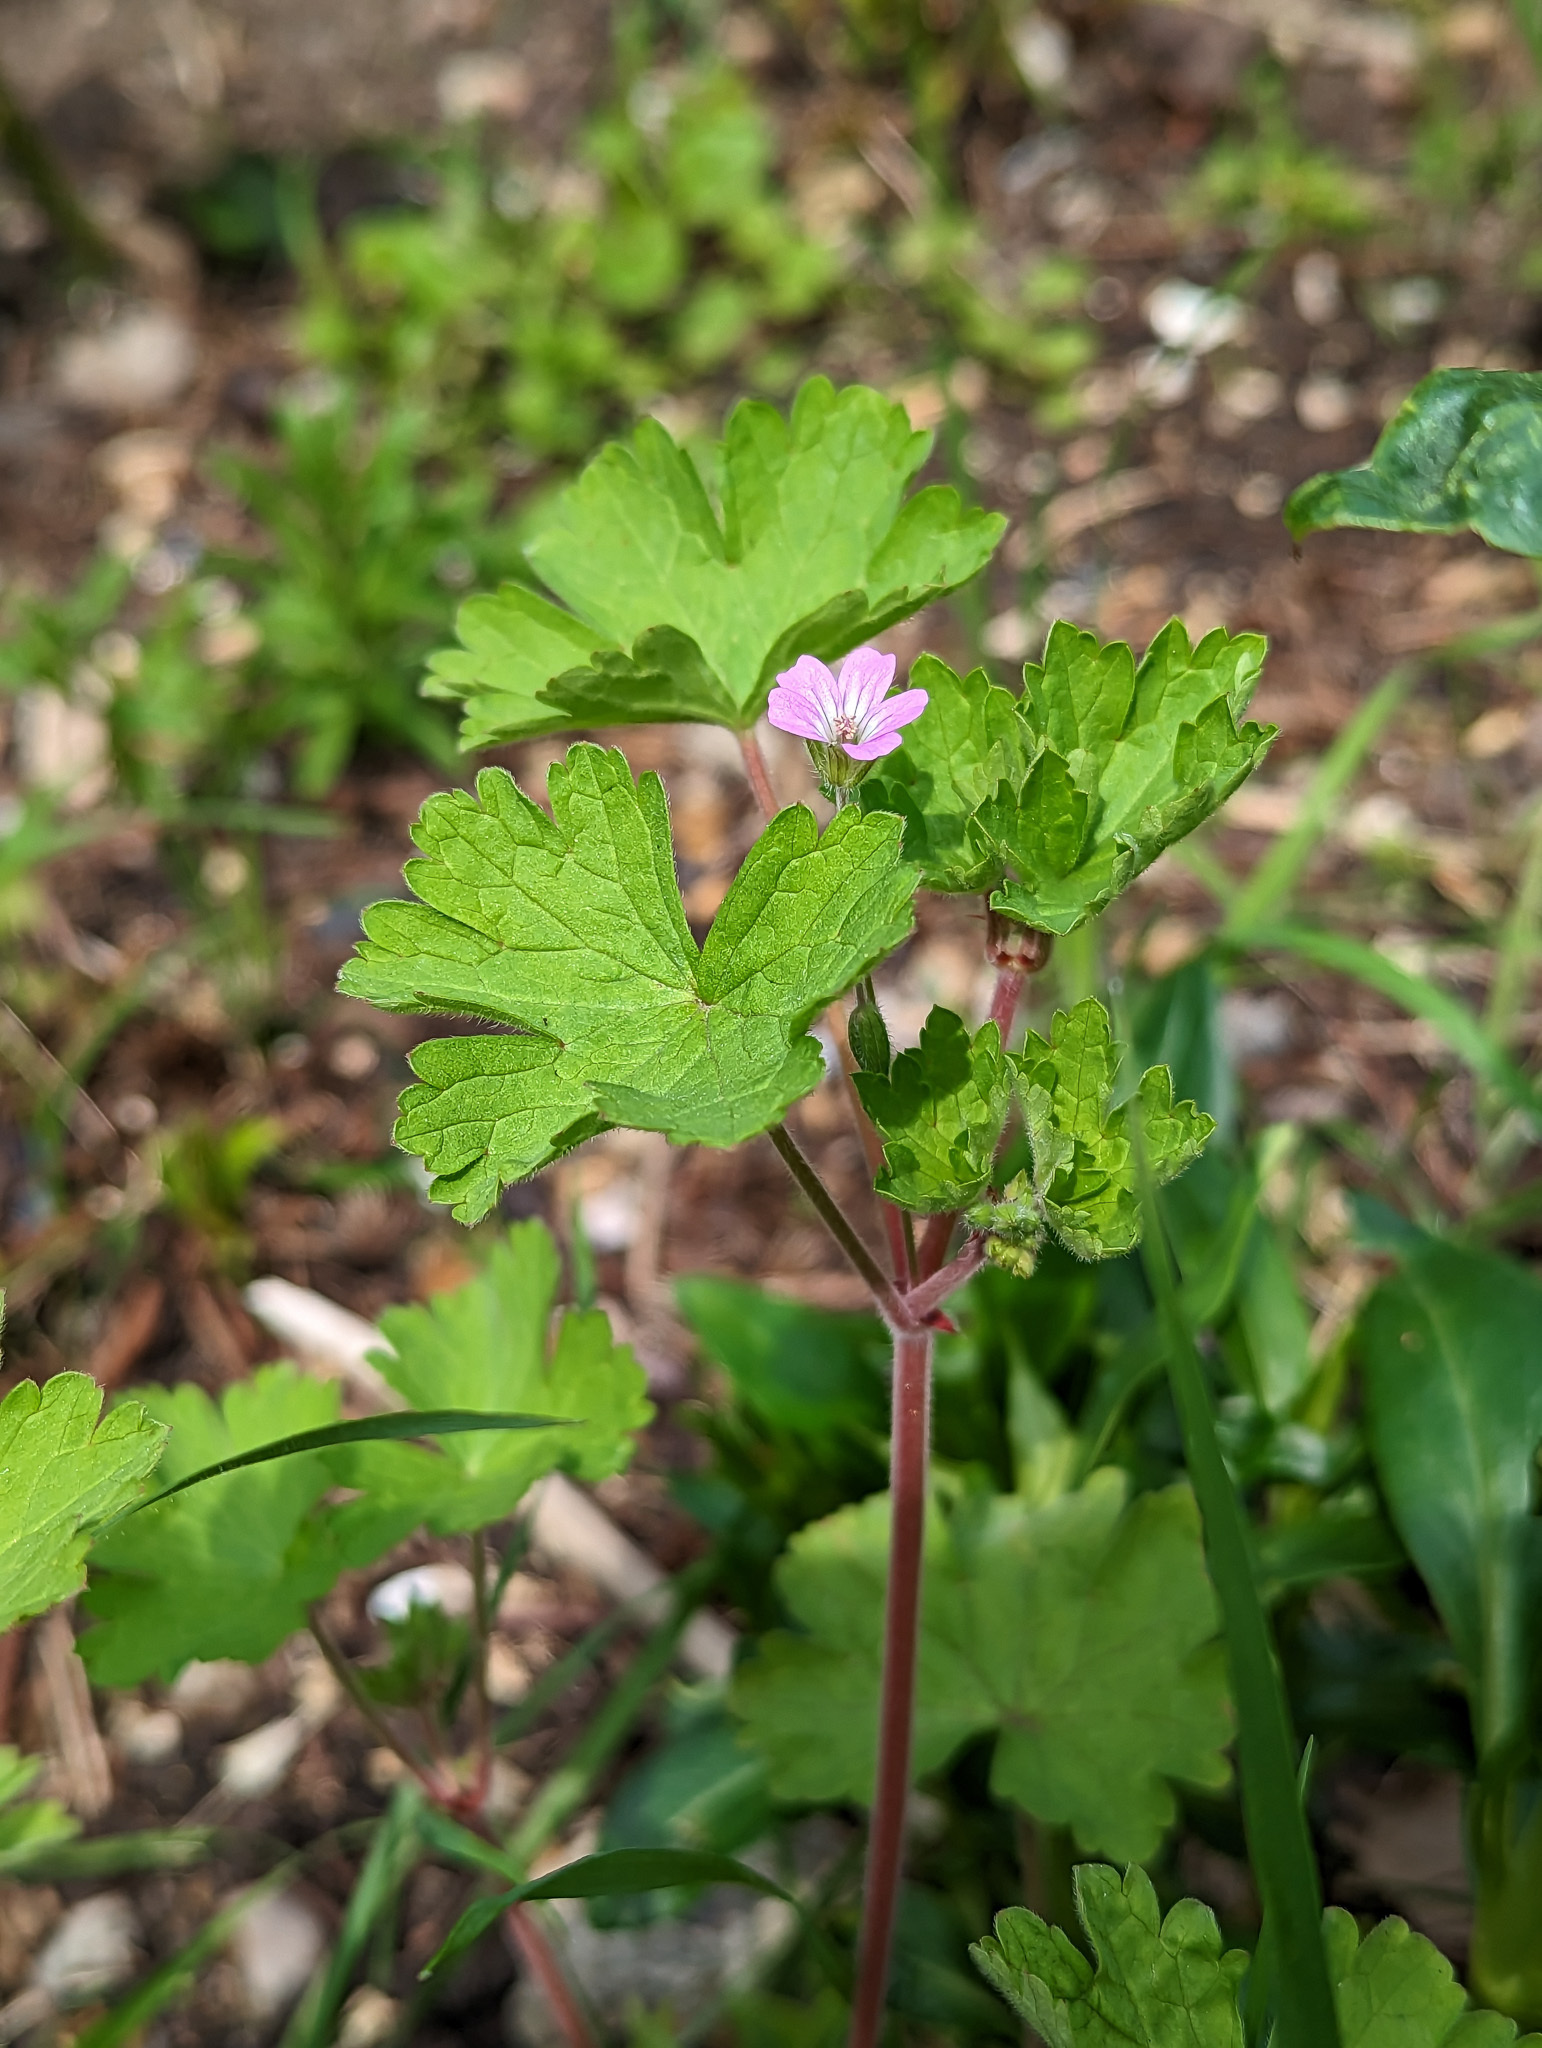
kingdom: Plantae
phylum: Tracheophyta
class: Magnoliopsida
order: Geraniales
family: Geraniaceae
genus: Geranium
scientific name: Geranium rotundifolium
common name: Round-leaved crane's-bill
